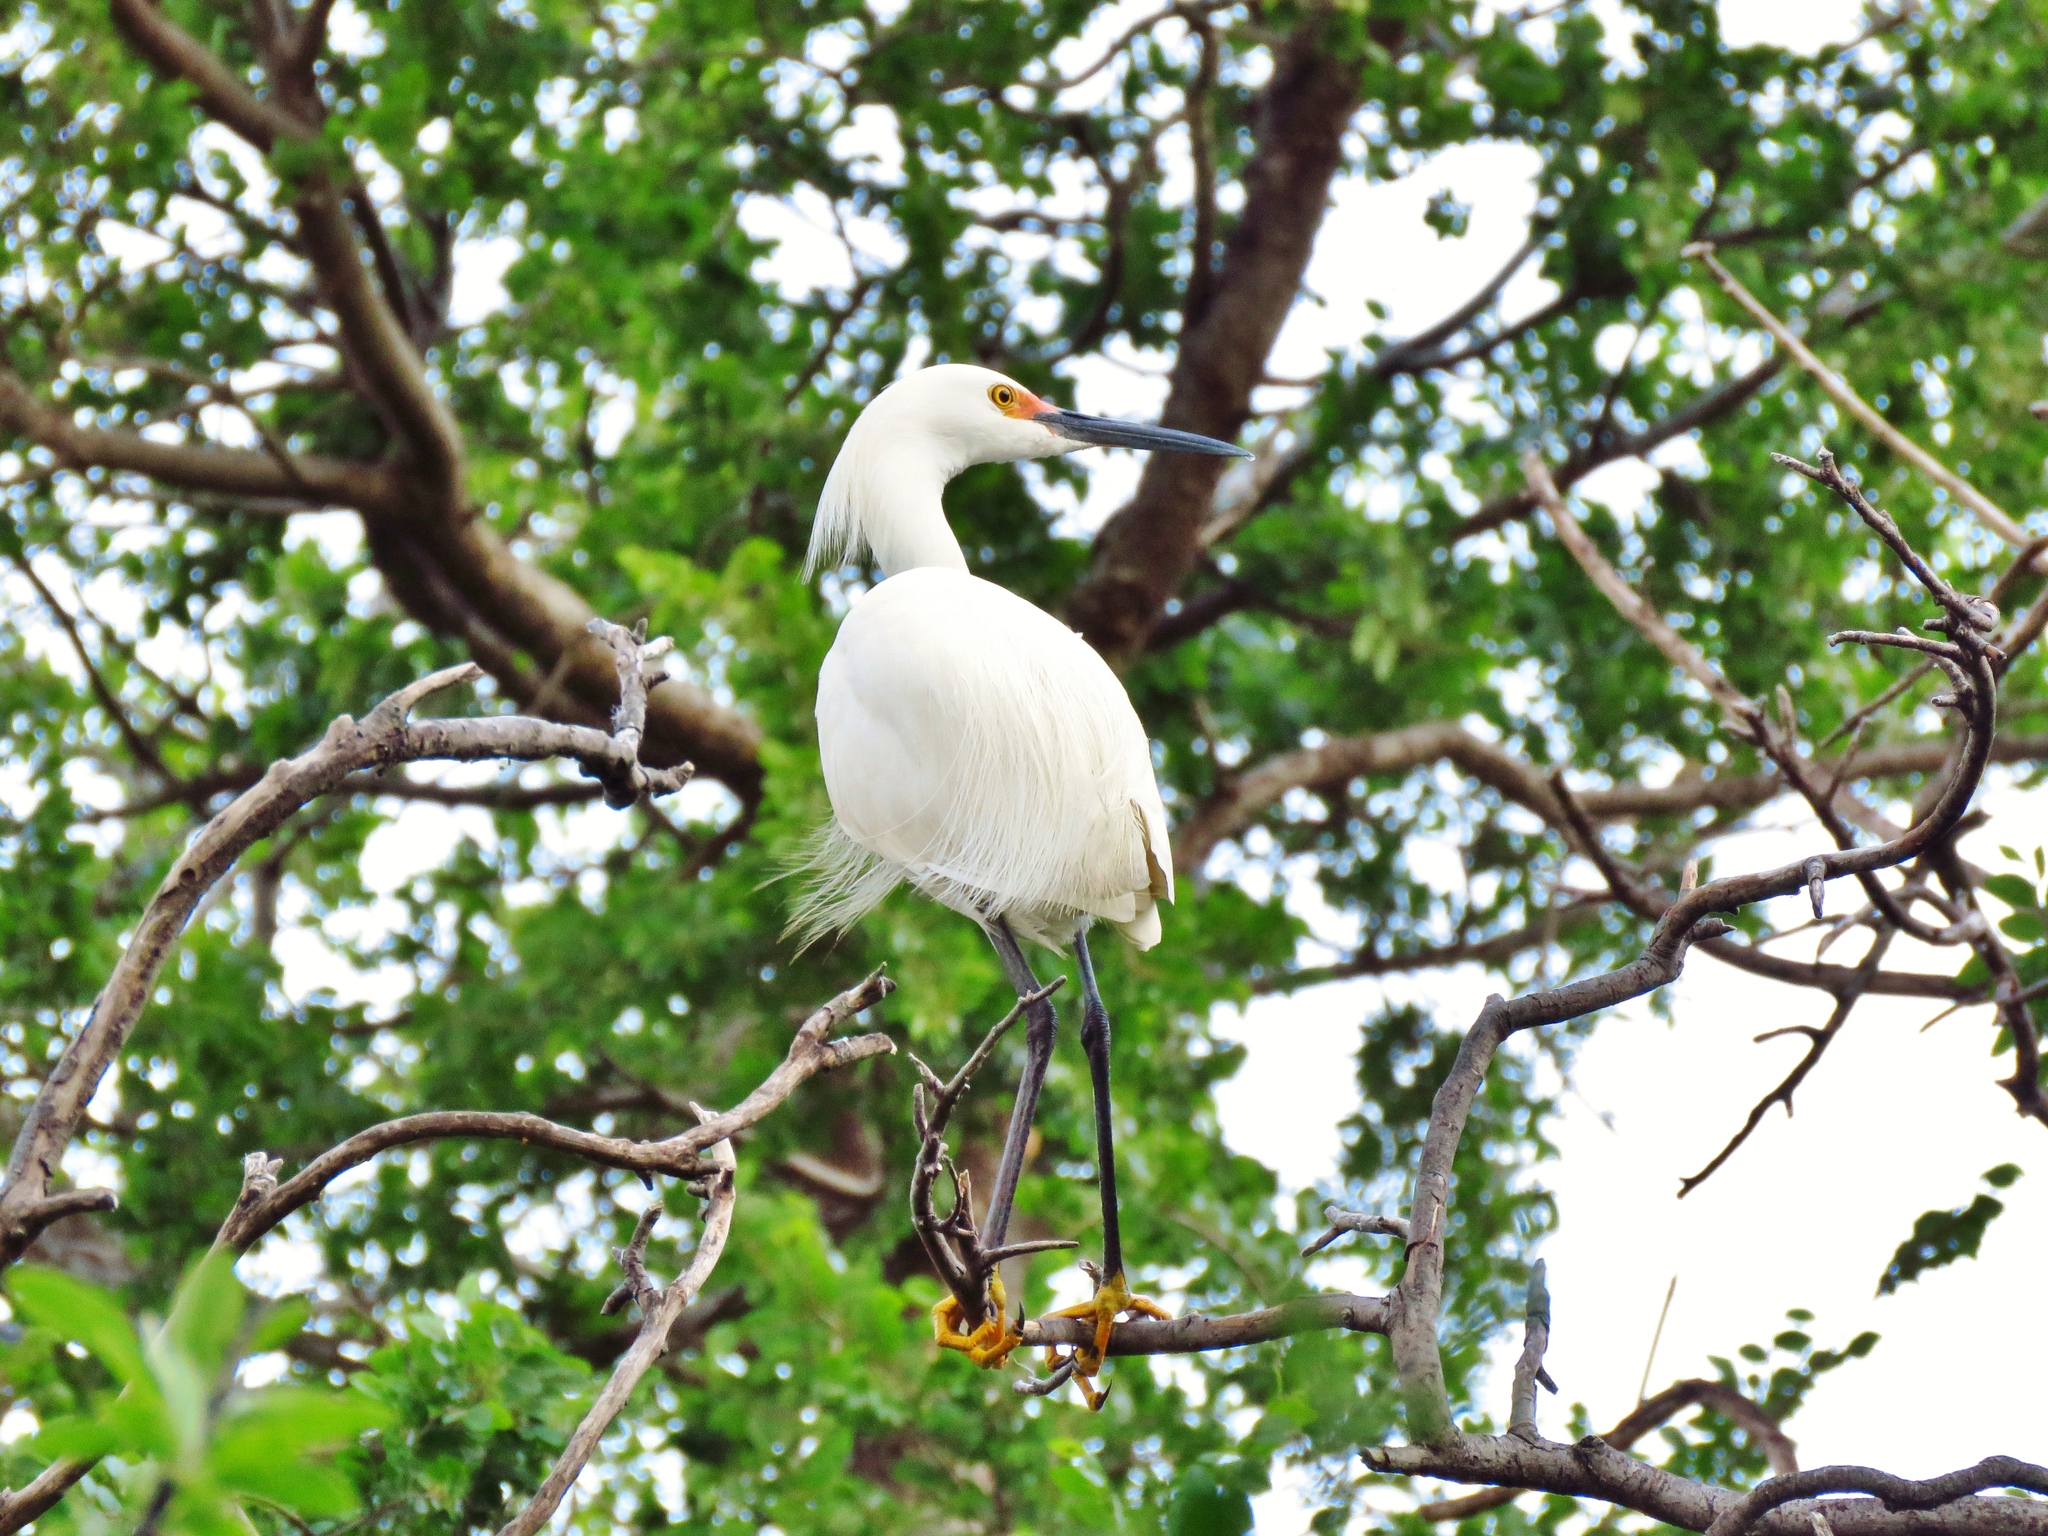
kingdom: Animalia
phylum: Chordata
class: Aves
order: Pelecaniformes
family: Ardeidae
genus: Egretta
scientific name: Egretta thula
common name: Snowy egret
